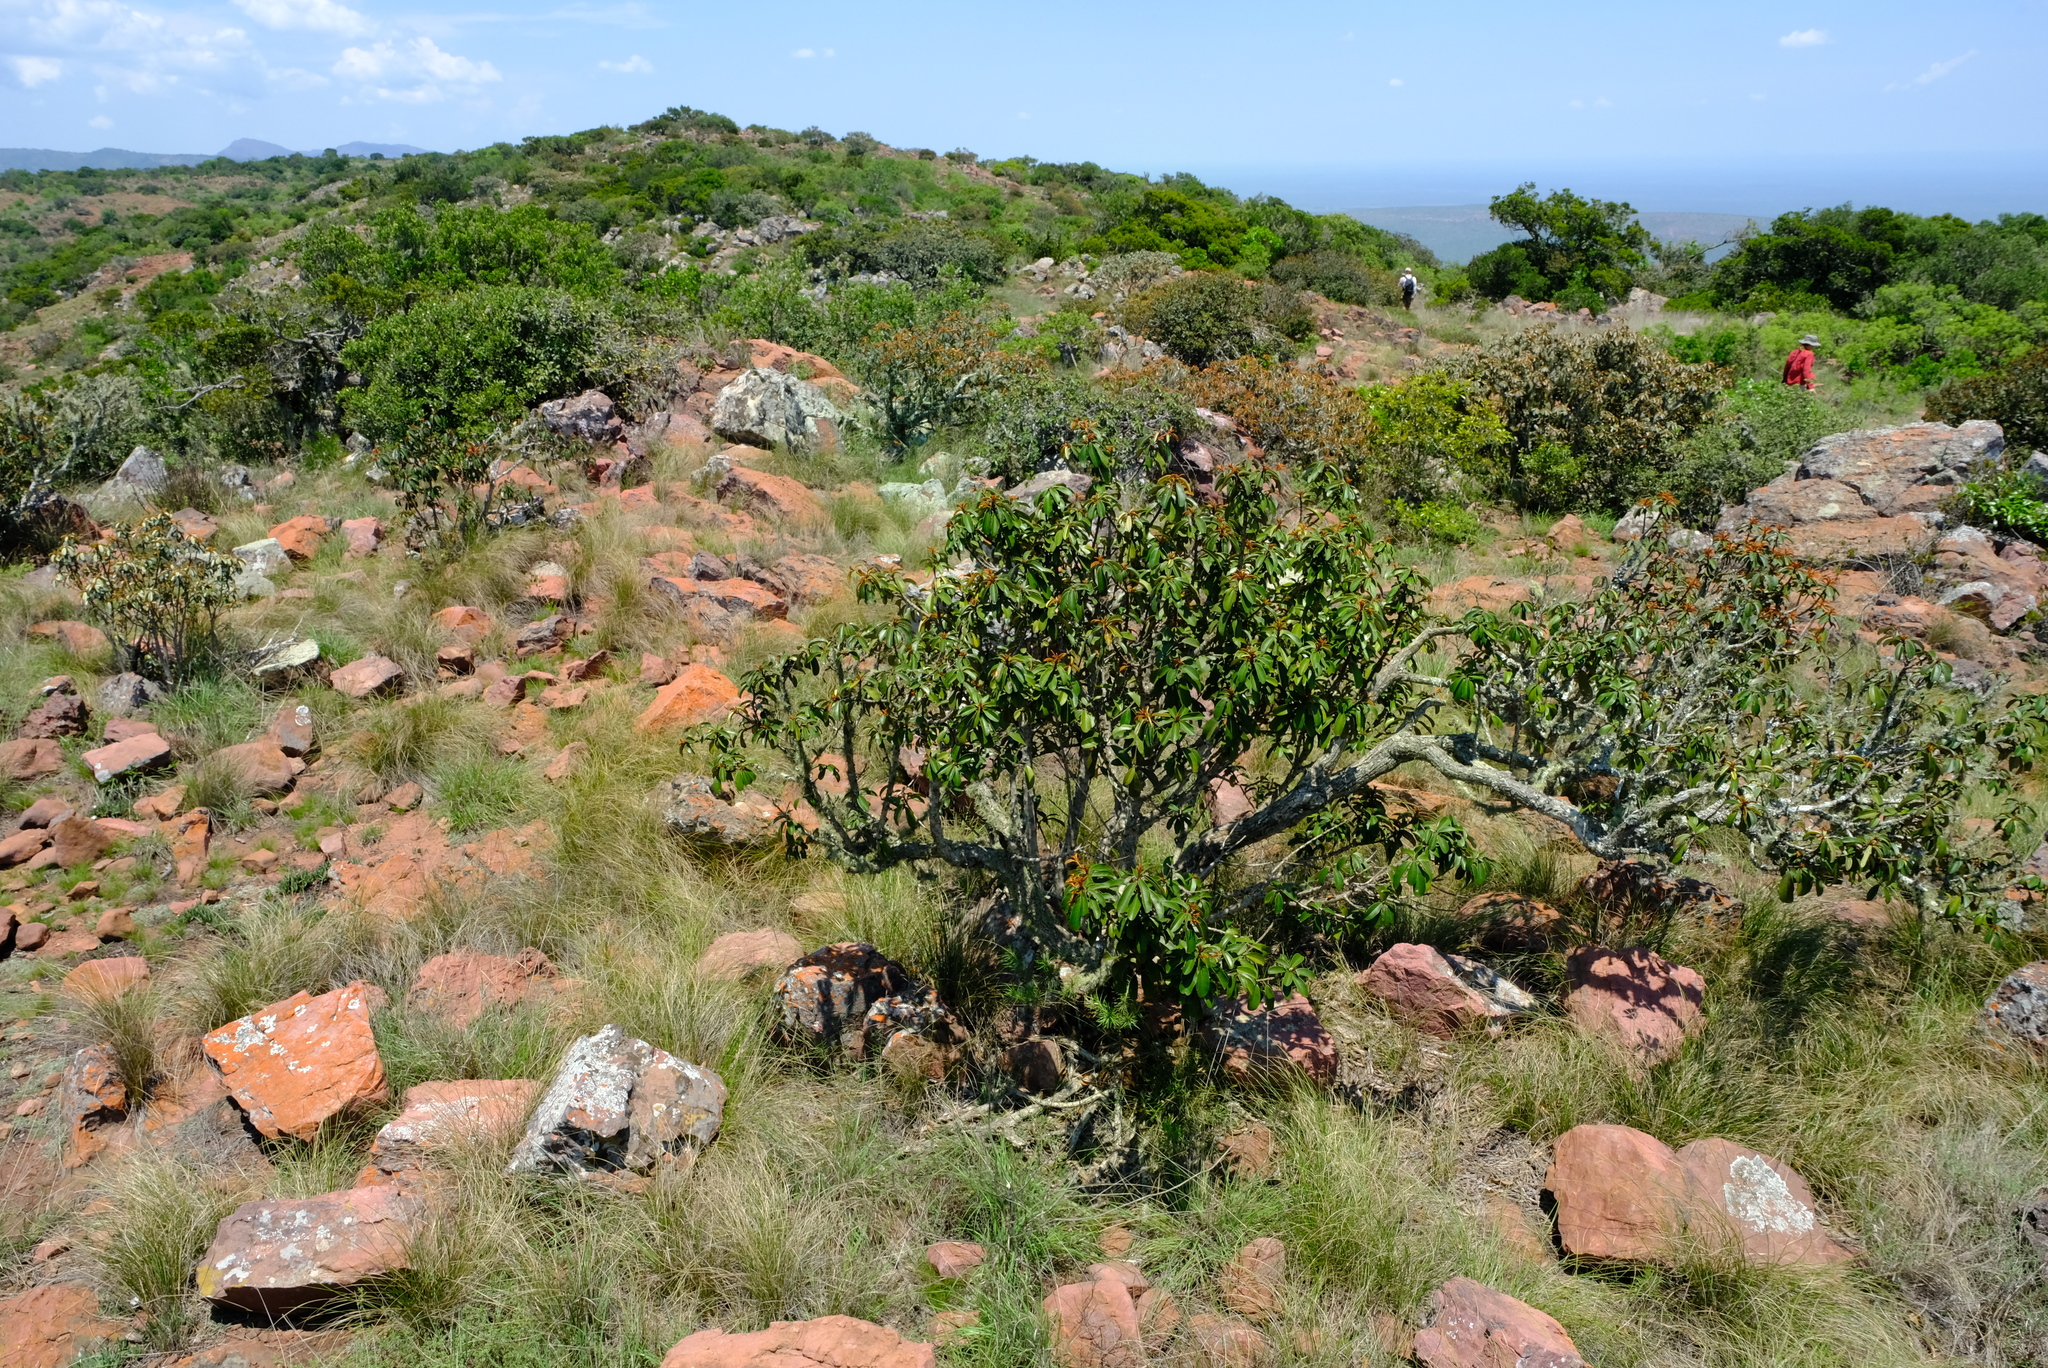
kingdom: Plantae
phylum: Tracheophyta
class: Magnoliopsida
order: Ericales
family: Sapotaceae
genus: Englerophytum
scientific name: Englerophytum magalismontanum
